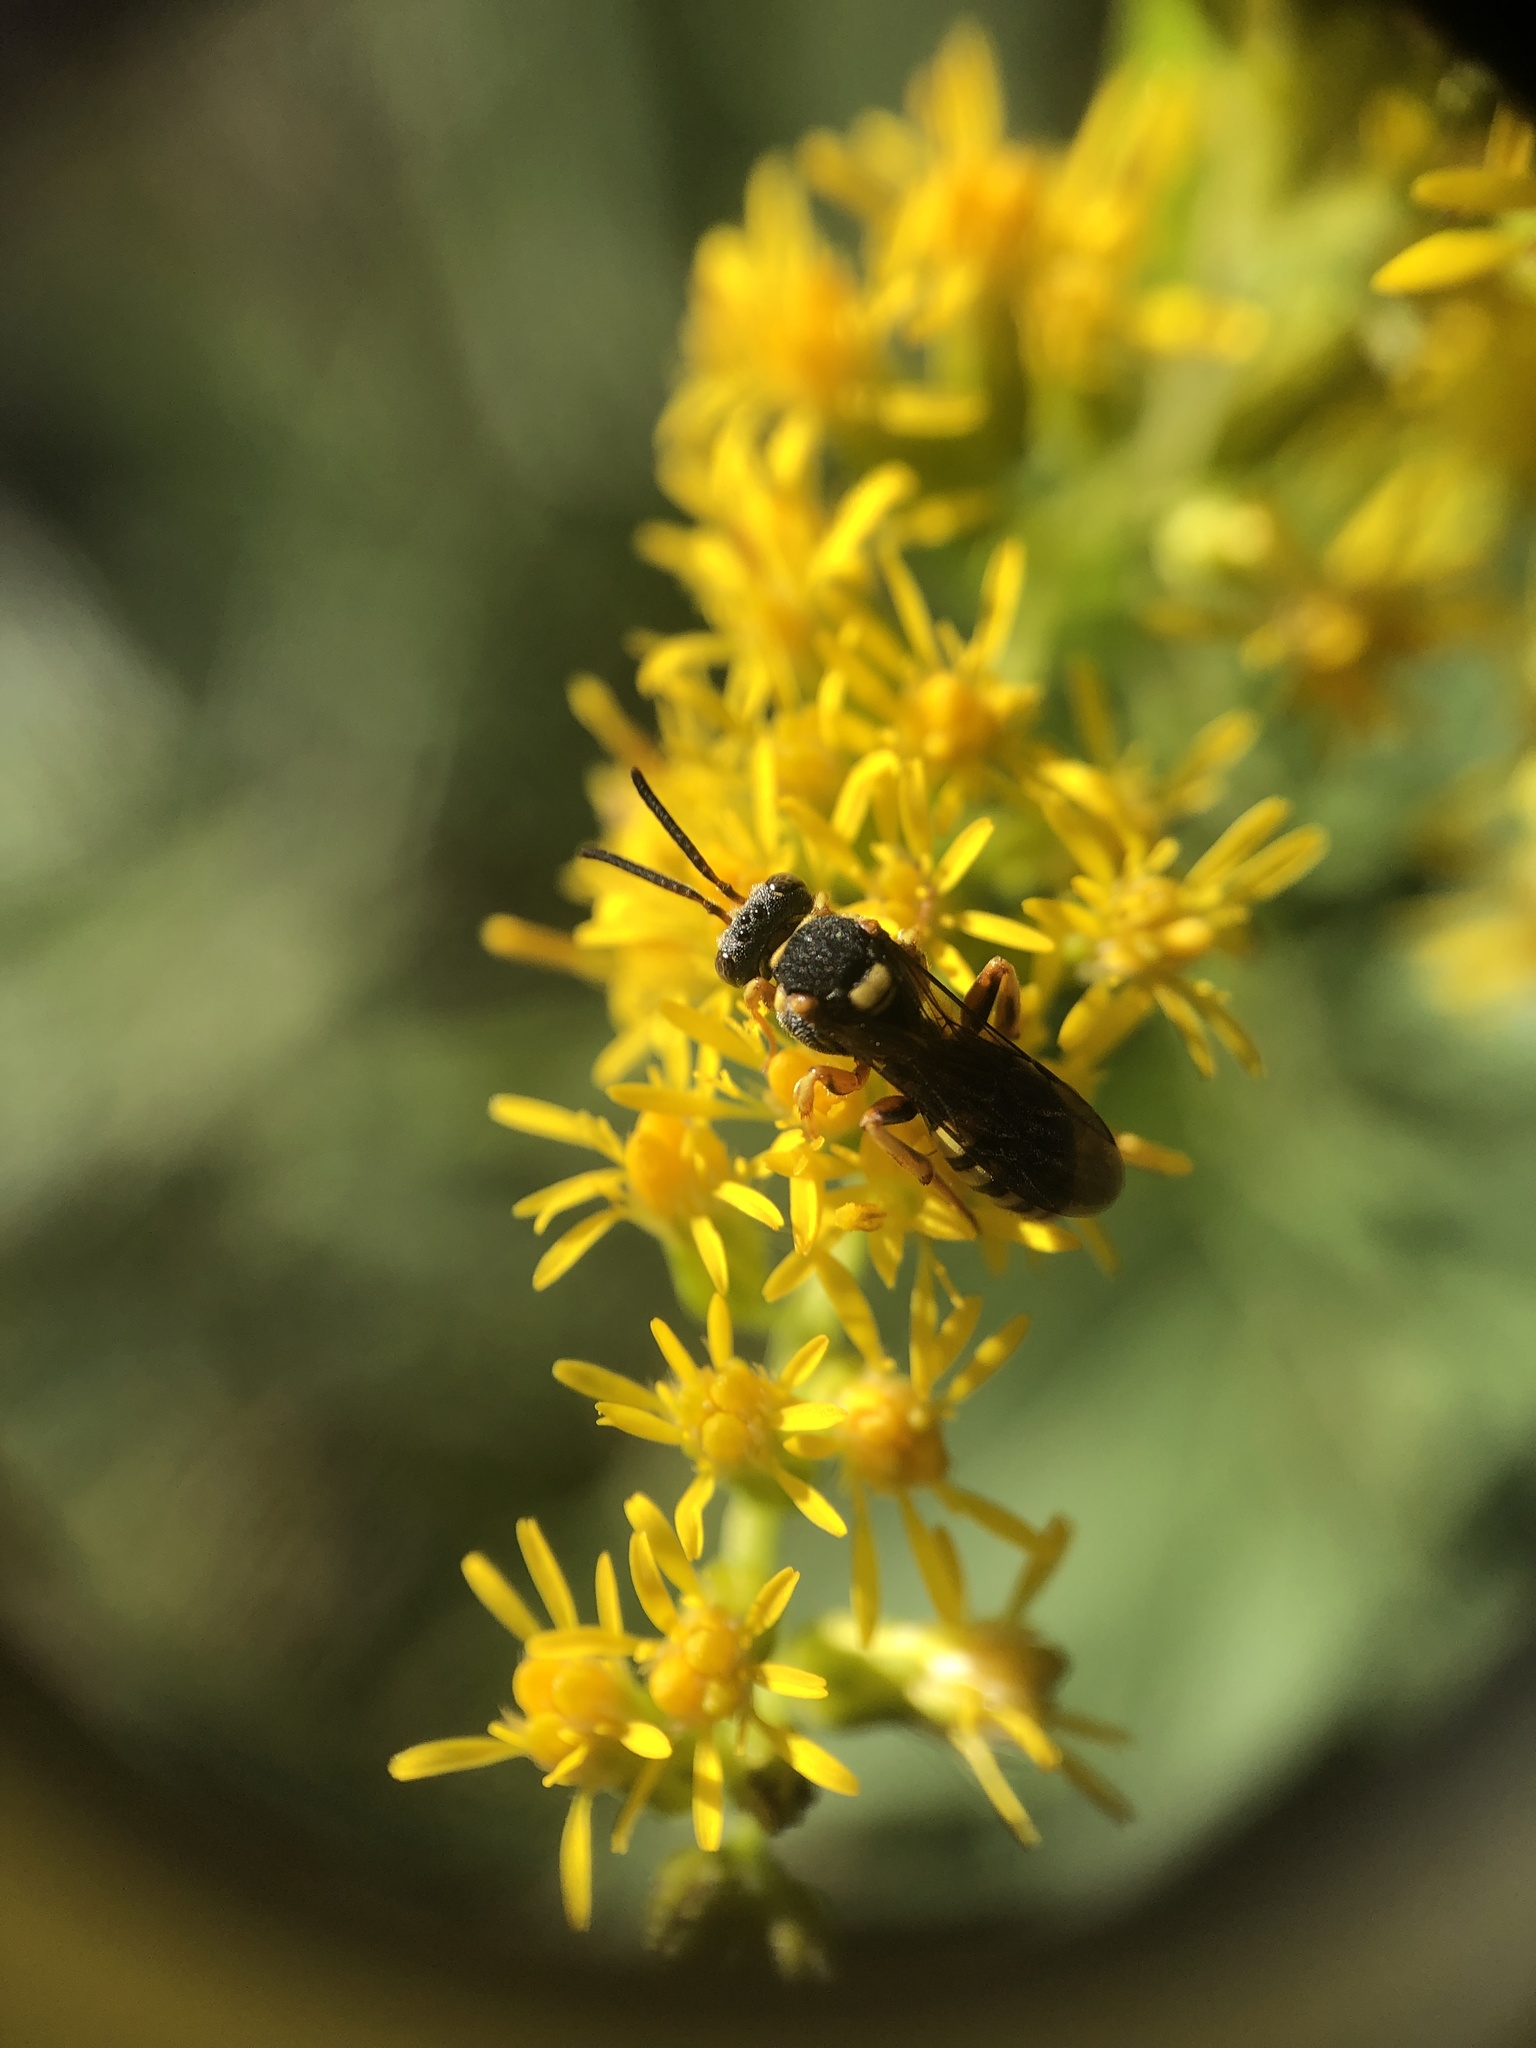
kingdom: Animalia
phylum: Arthropoda
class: Insecta
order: Hymenoptera
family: Apidae
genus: Nomada
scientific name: Nomada placida
